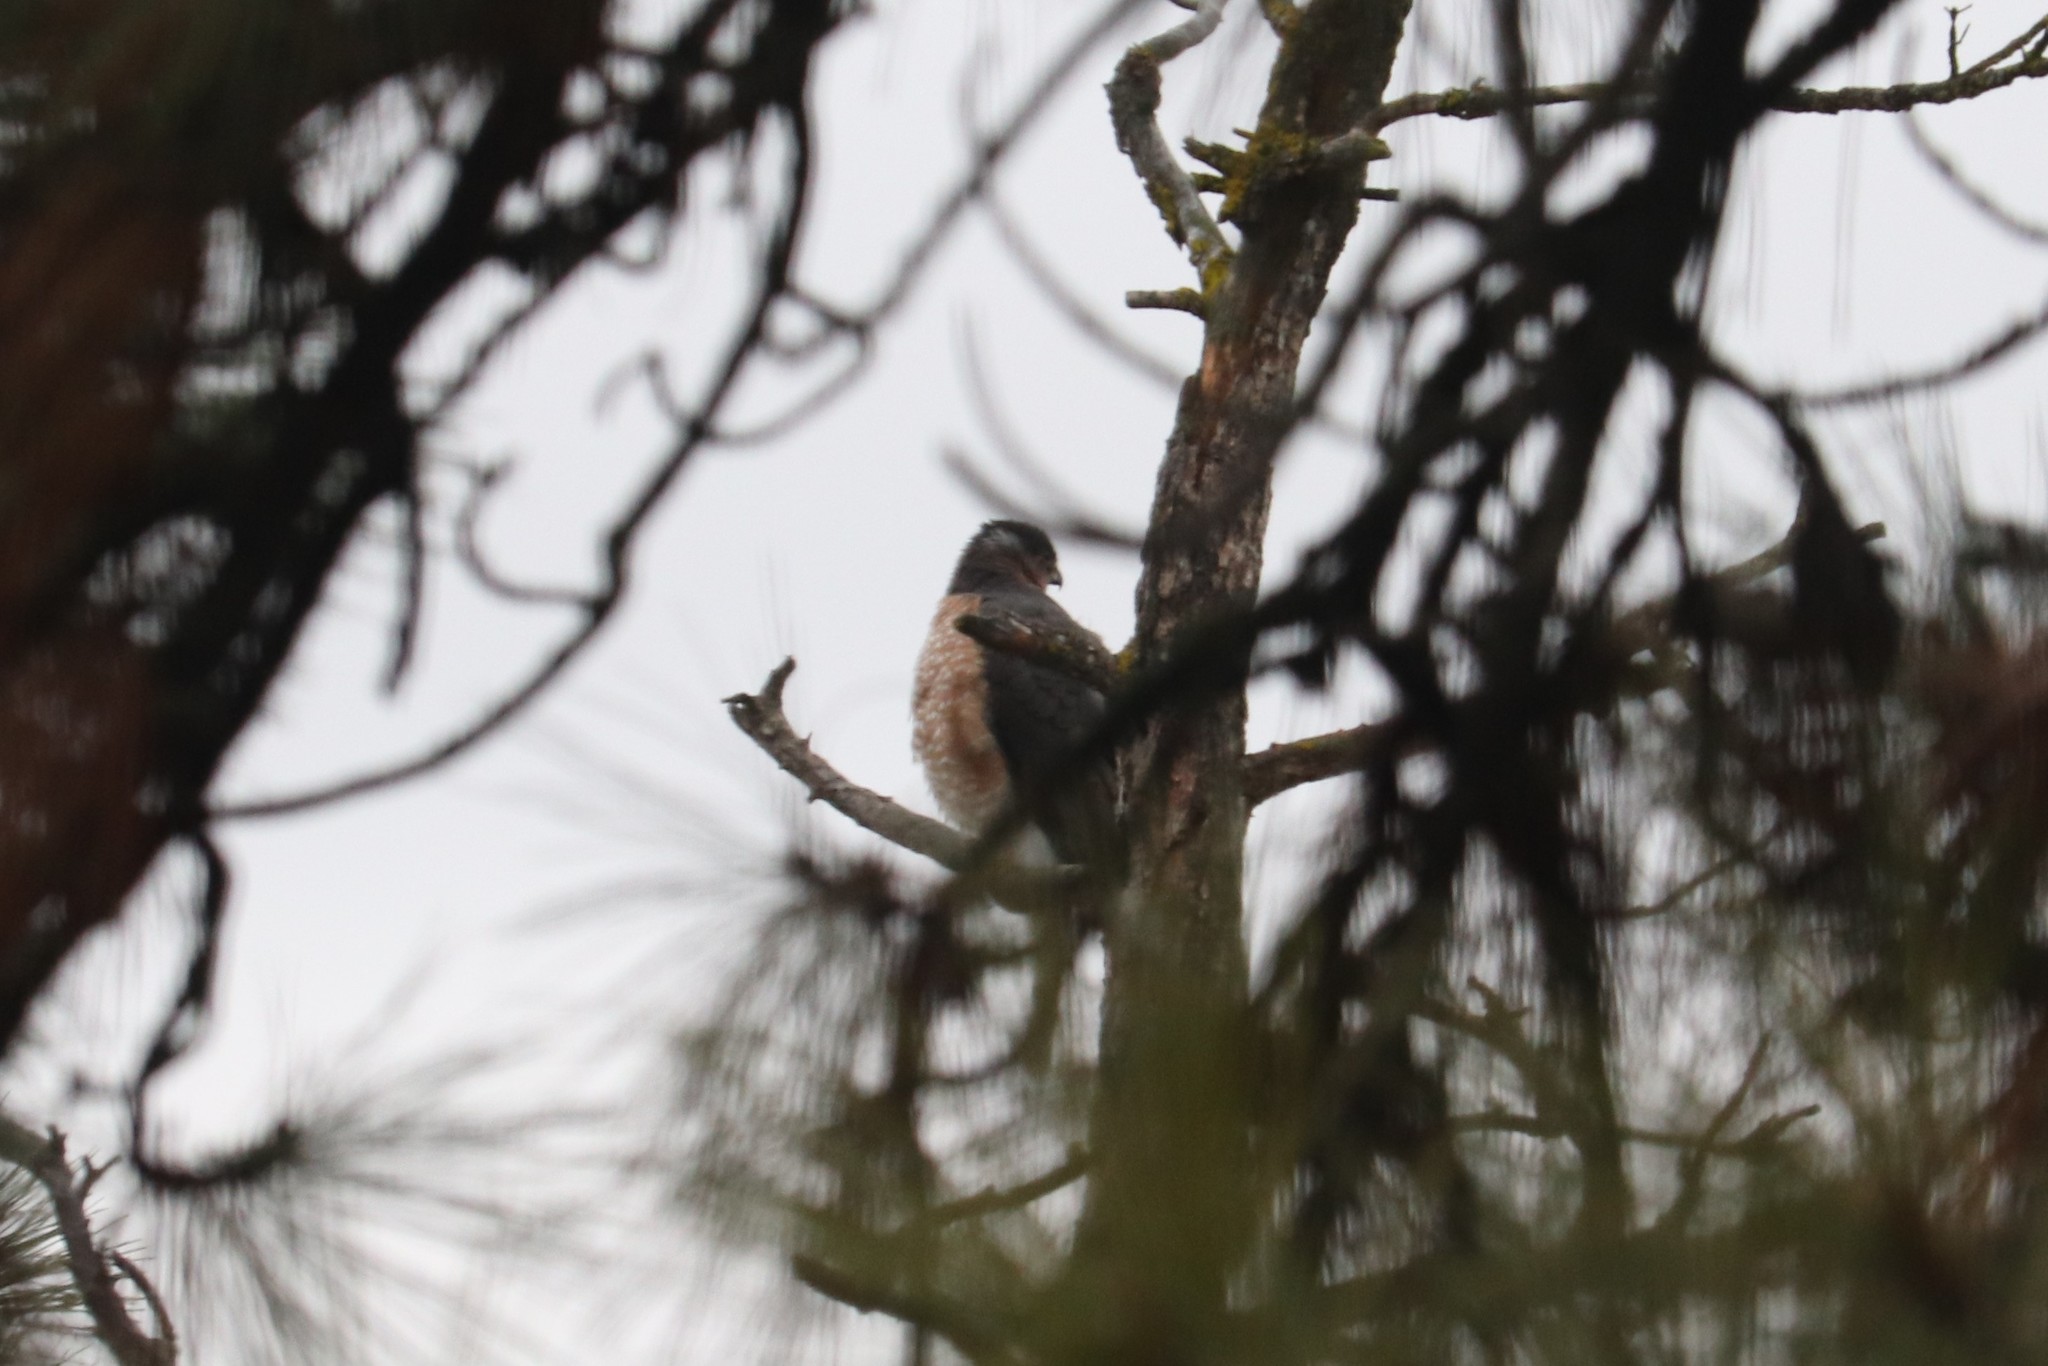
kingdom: Animalia
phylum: Chordata
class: Aves
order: Accipitriformes
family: Accipitridae
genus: Accipiter
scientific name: Accipiter cooperii
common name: Cooper's hawk
